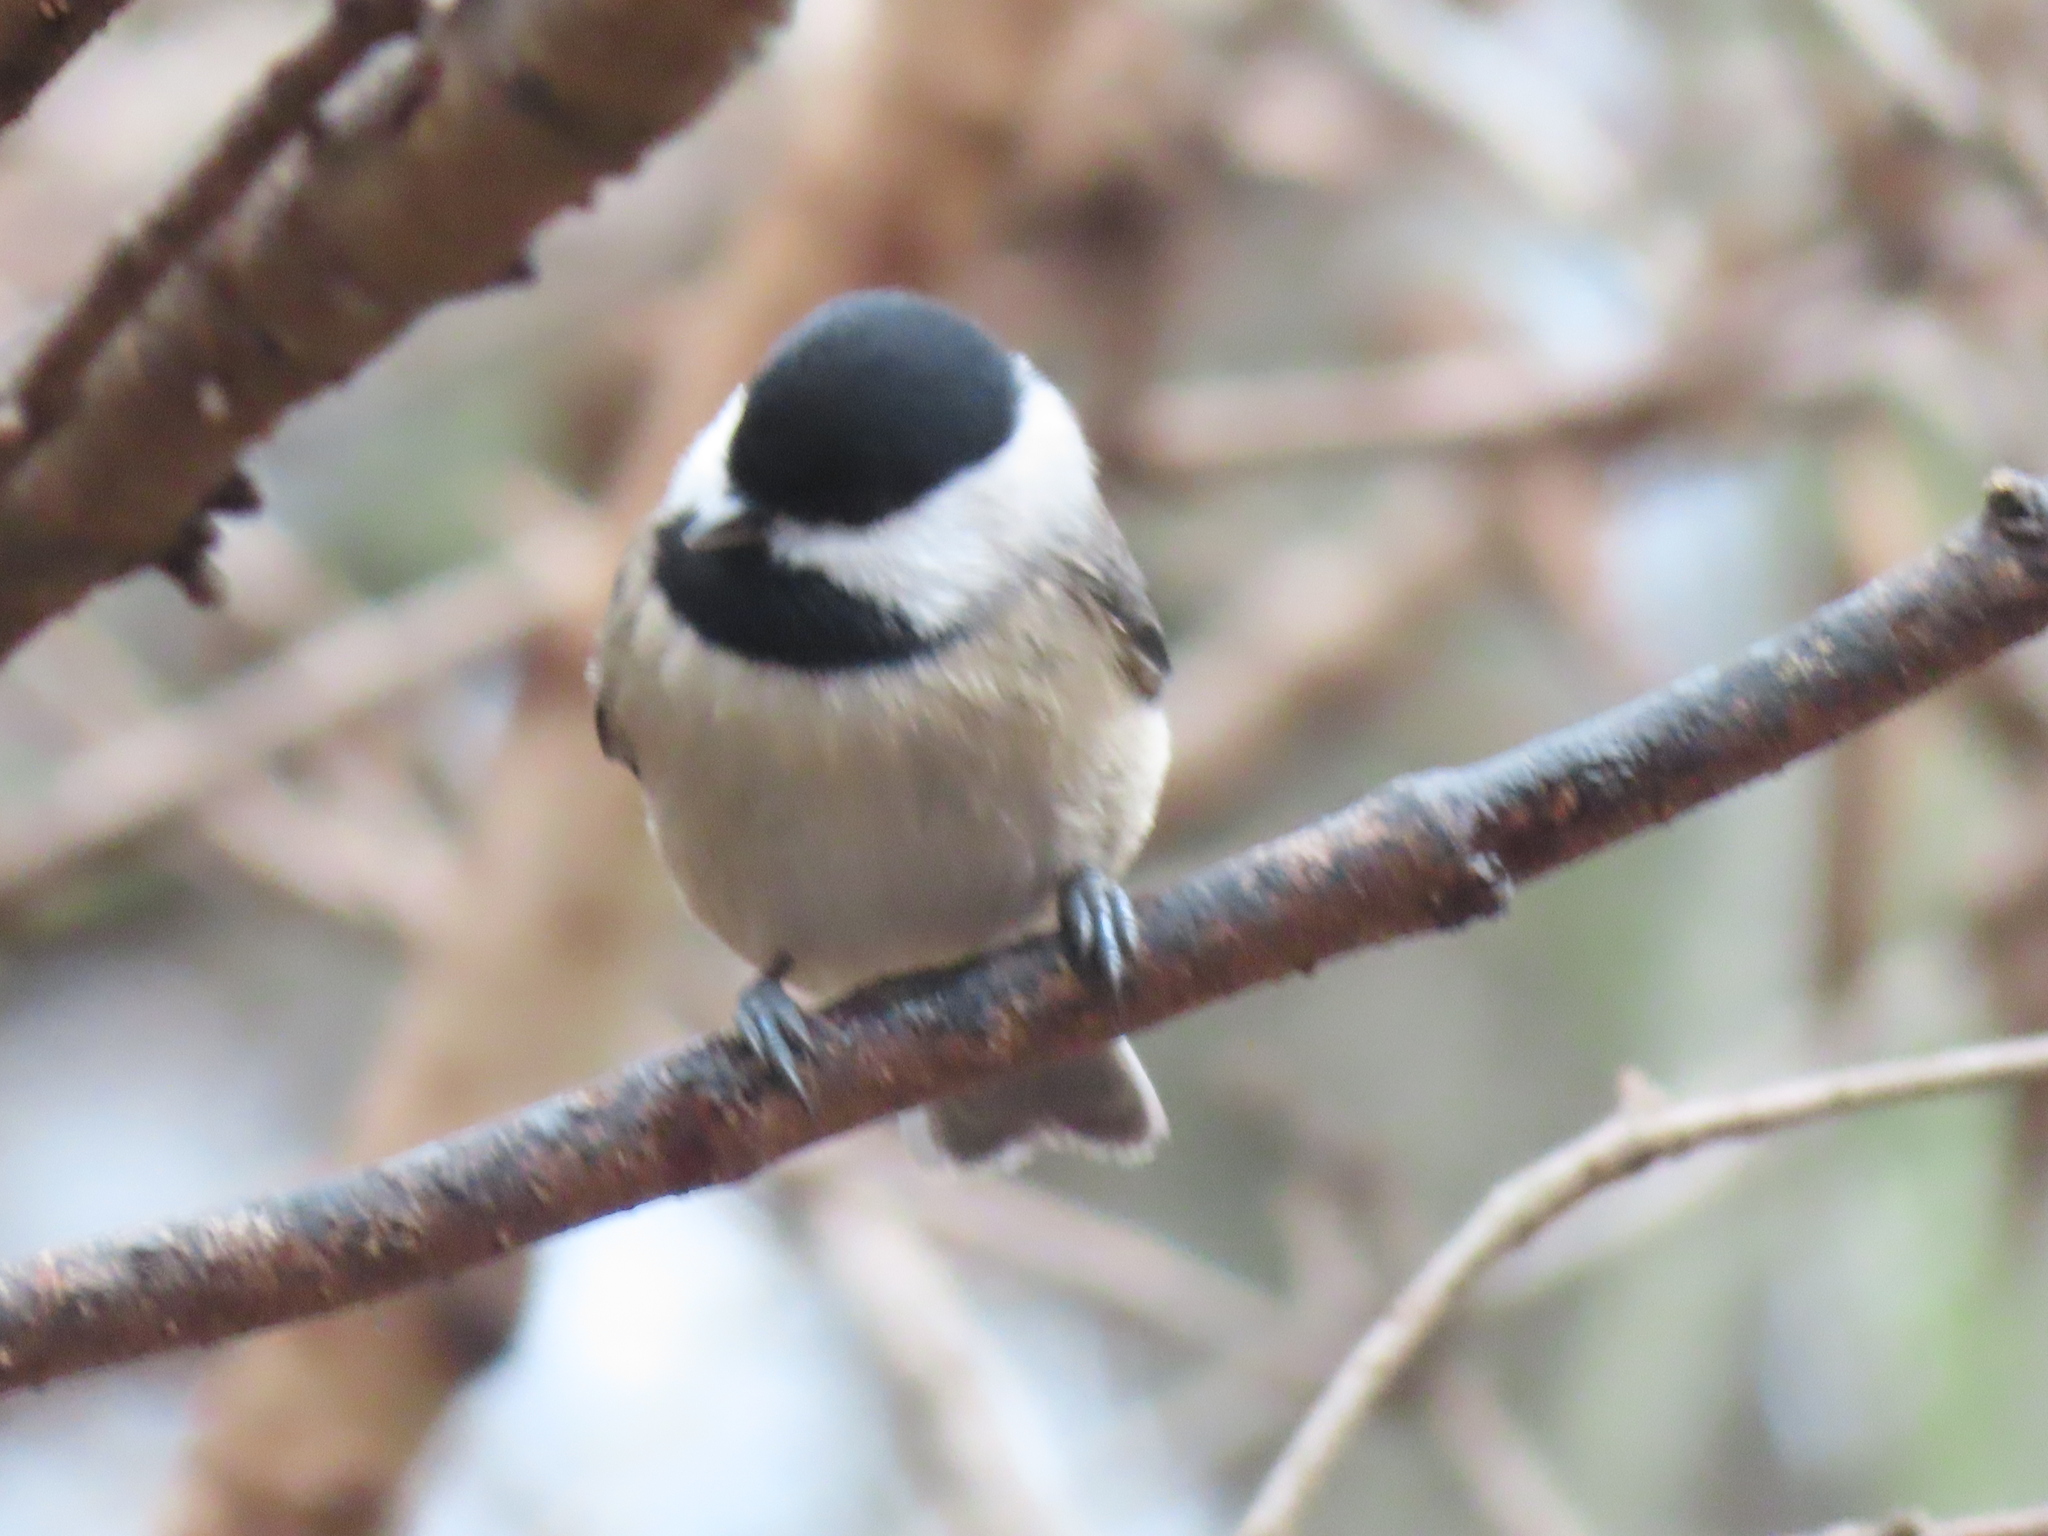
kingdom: Animalia
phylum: Chordata
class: Aves
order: Passeriformes
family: Paridae
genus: Poecile
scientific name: Poecile carolinensis
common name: Carolina chickadee
